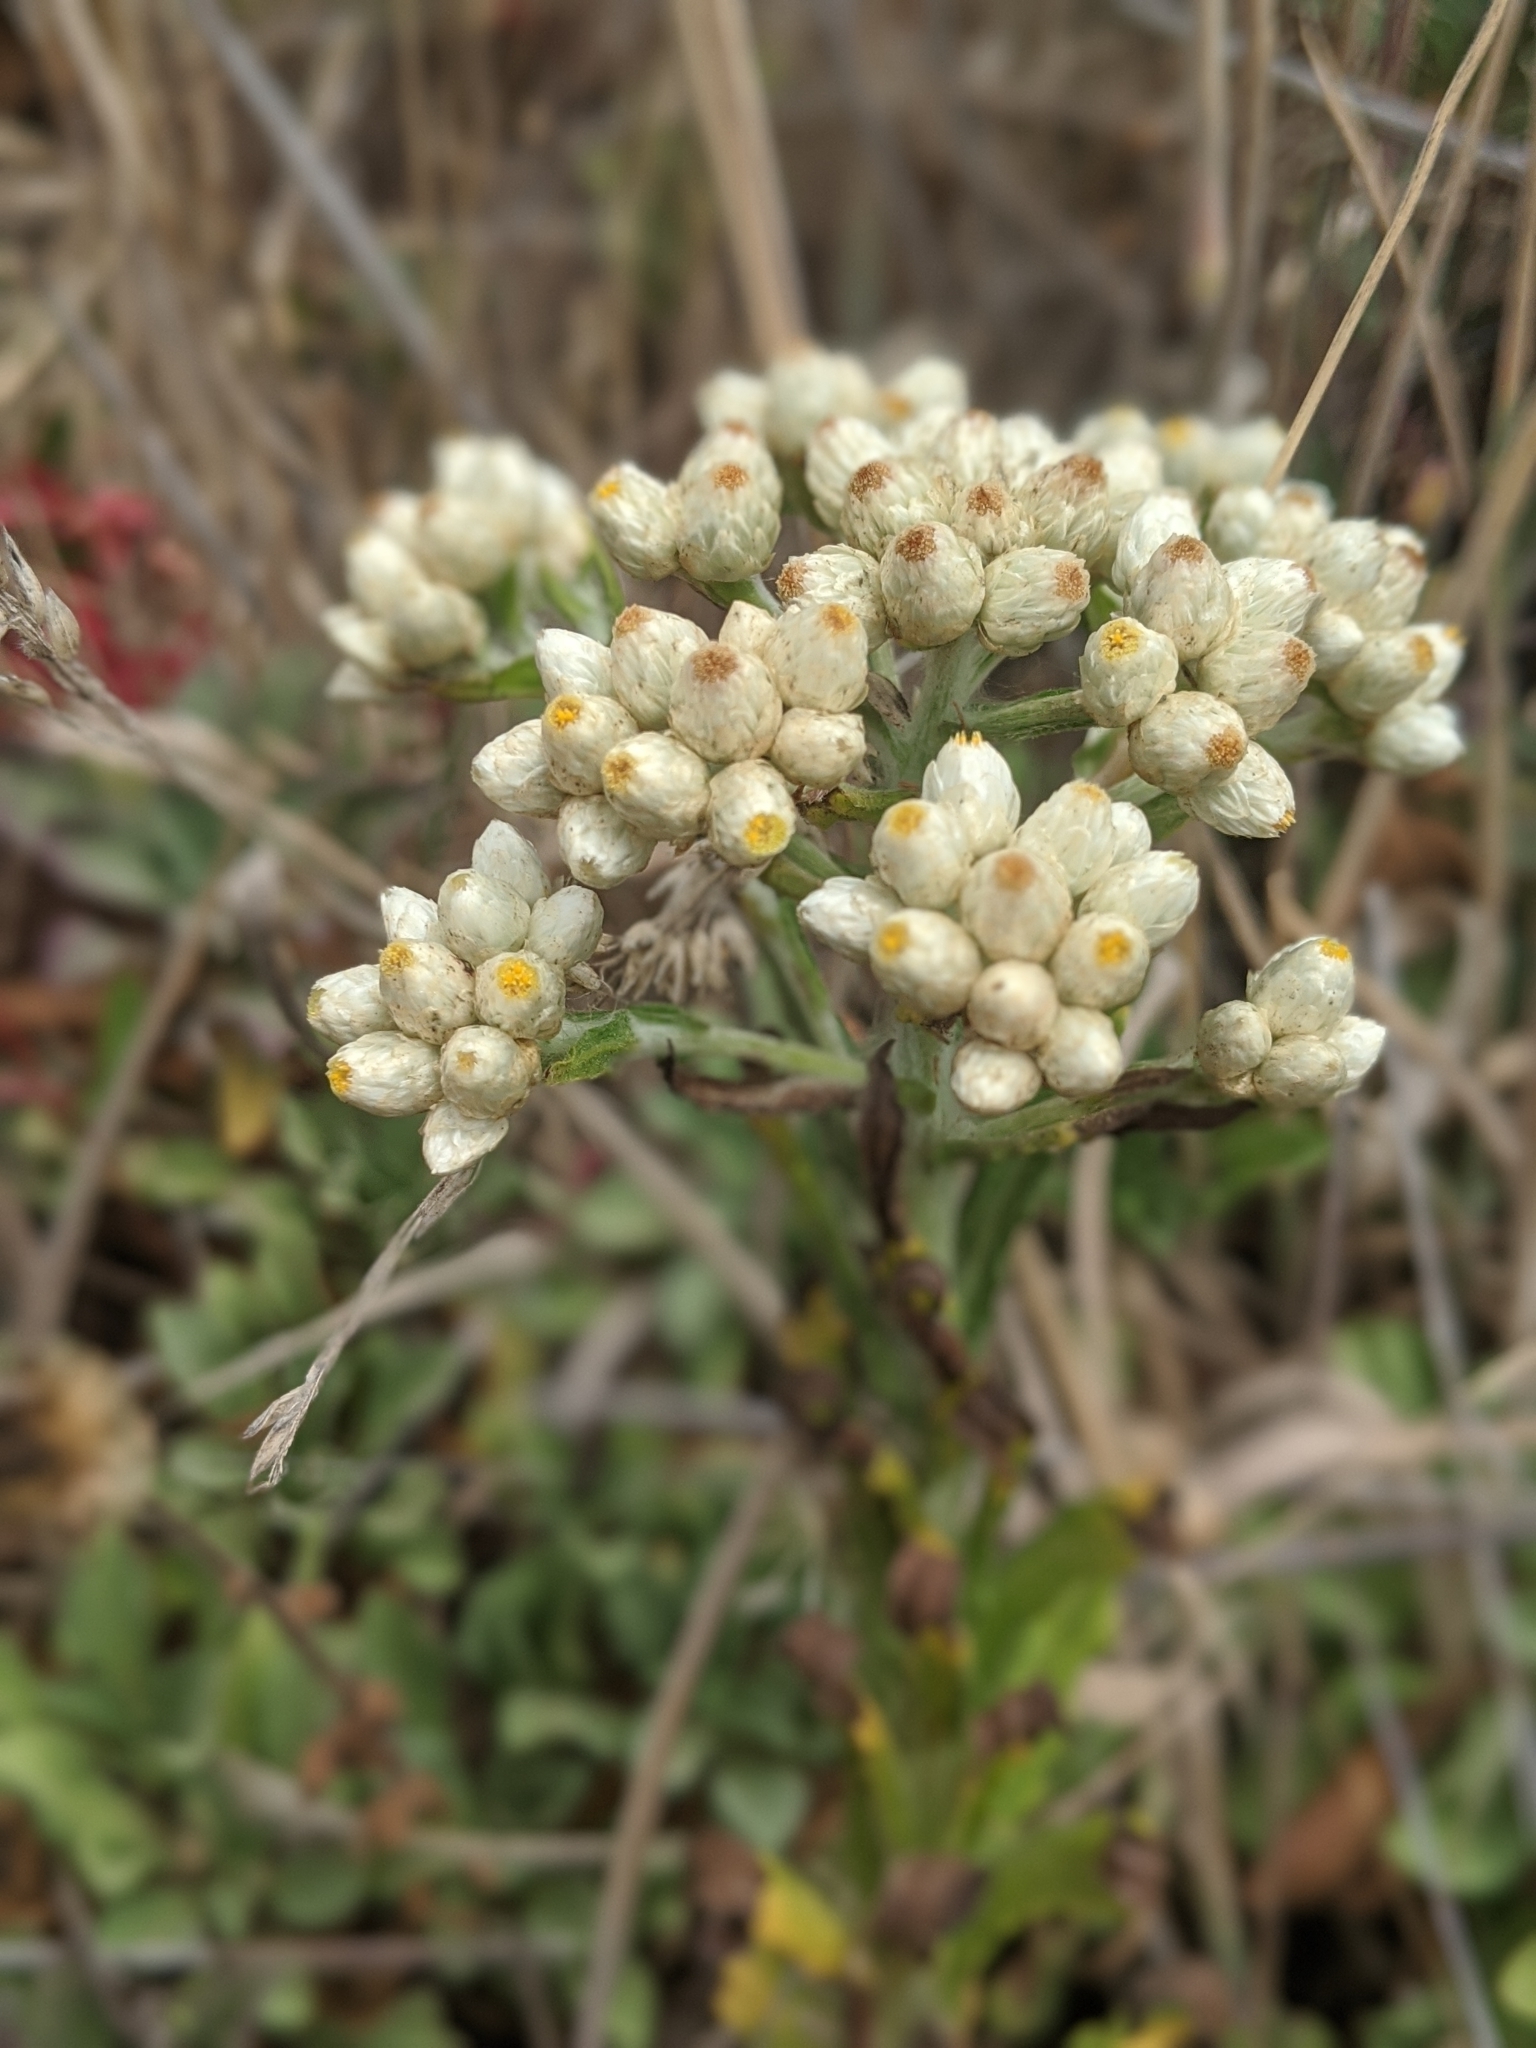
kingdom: Plantae
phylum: Tracheophyta
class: Magnoliopsida
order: Asterales
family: Asteraceae
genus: Pseudognaphalium
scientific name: Pseudognaphalium californicum
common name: California rabbit-tobacco
